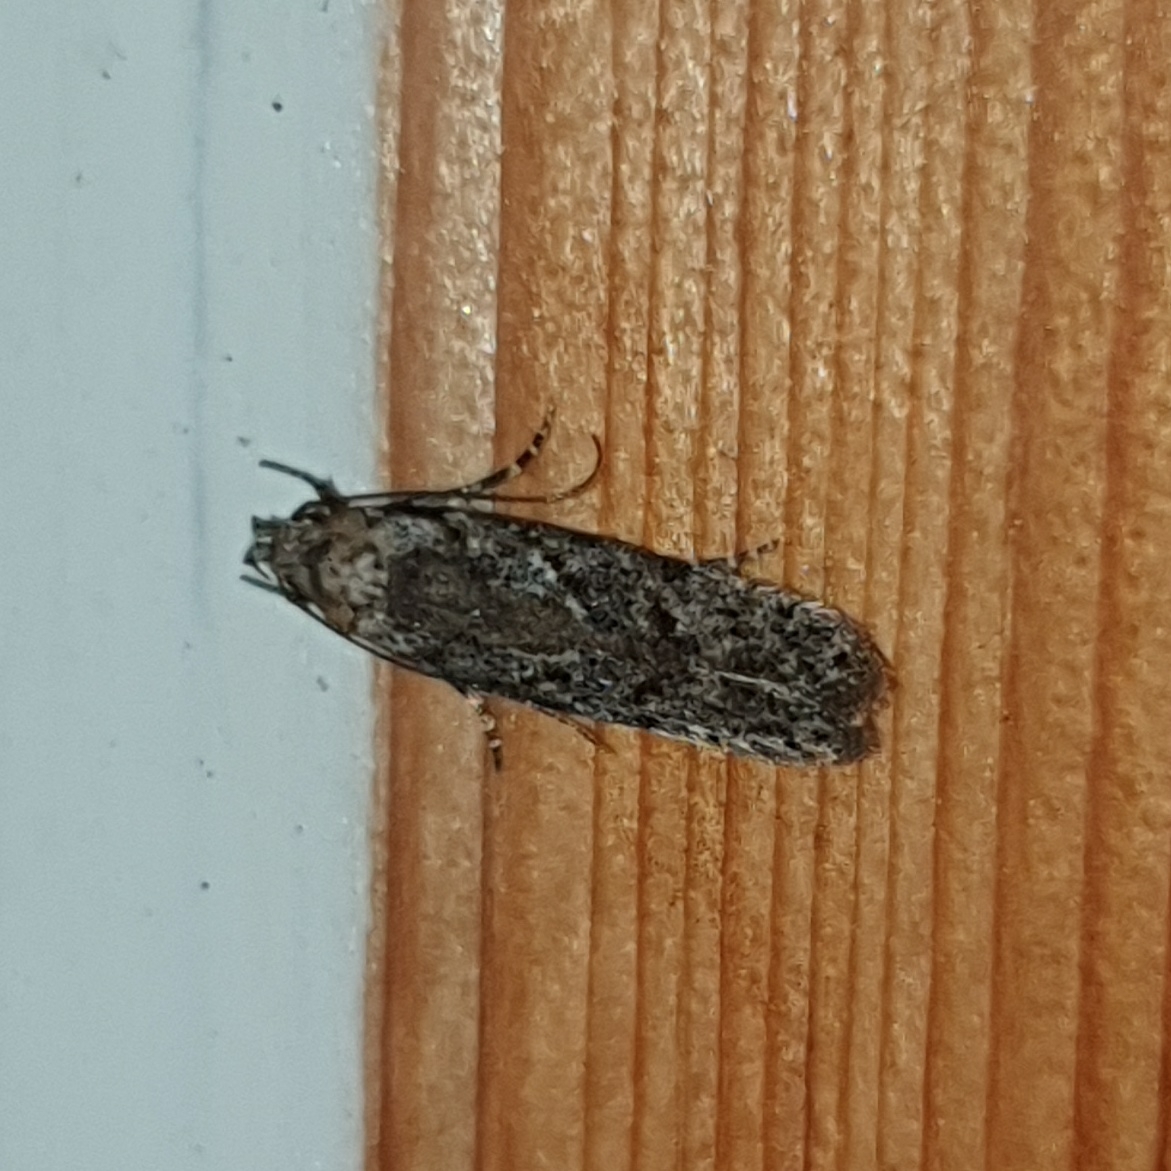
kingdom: Animalia
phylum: Arthropoda
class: Insecta
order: Lepidoptera
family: Gelechiidae
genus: Carpatolechia
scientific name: Carpatolechia decorella
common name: Winter oak groundling
